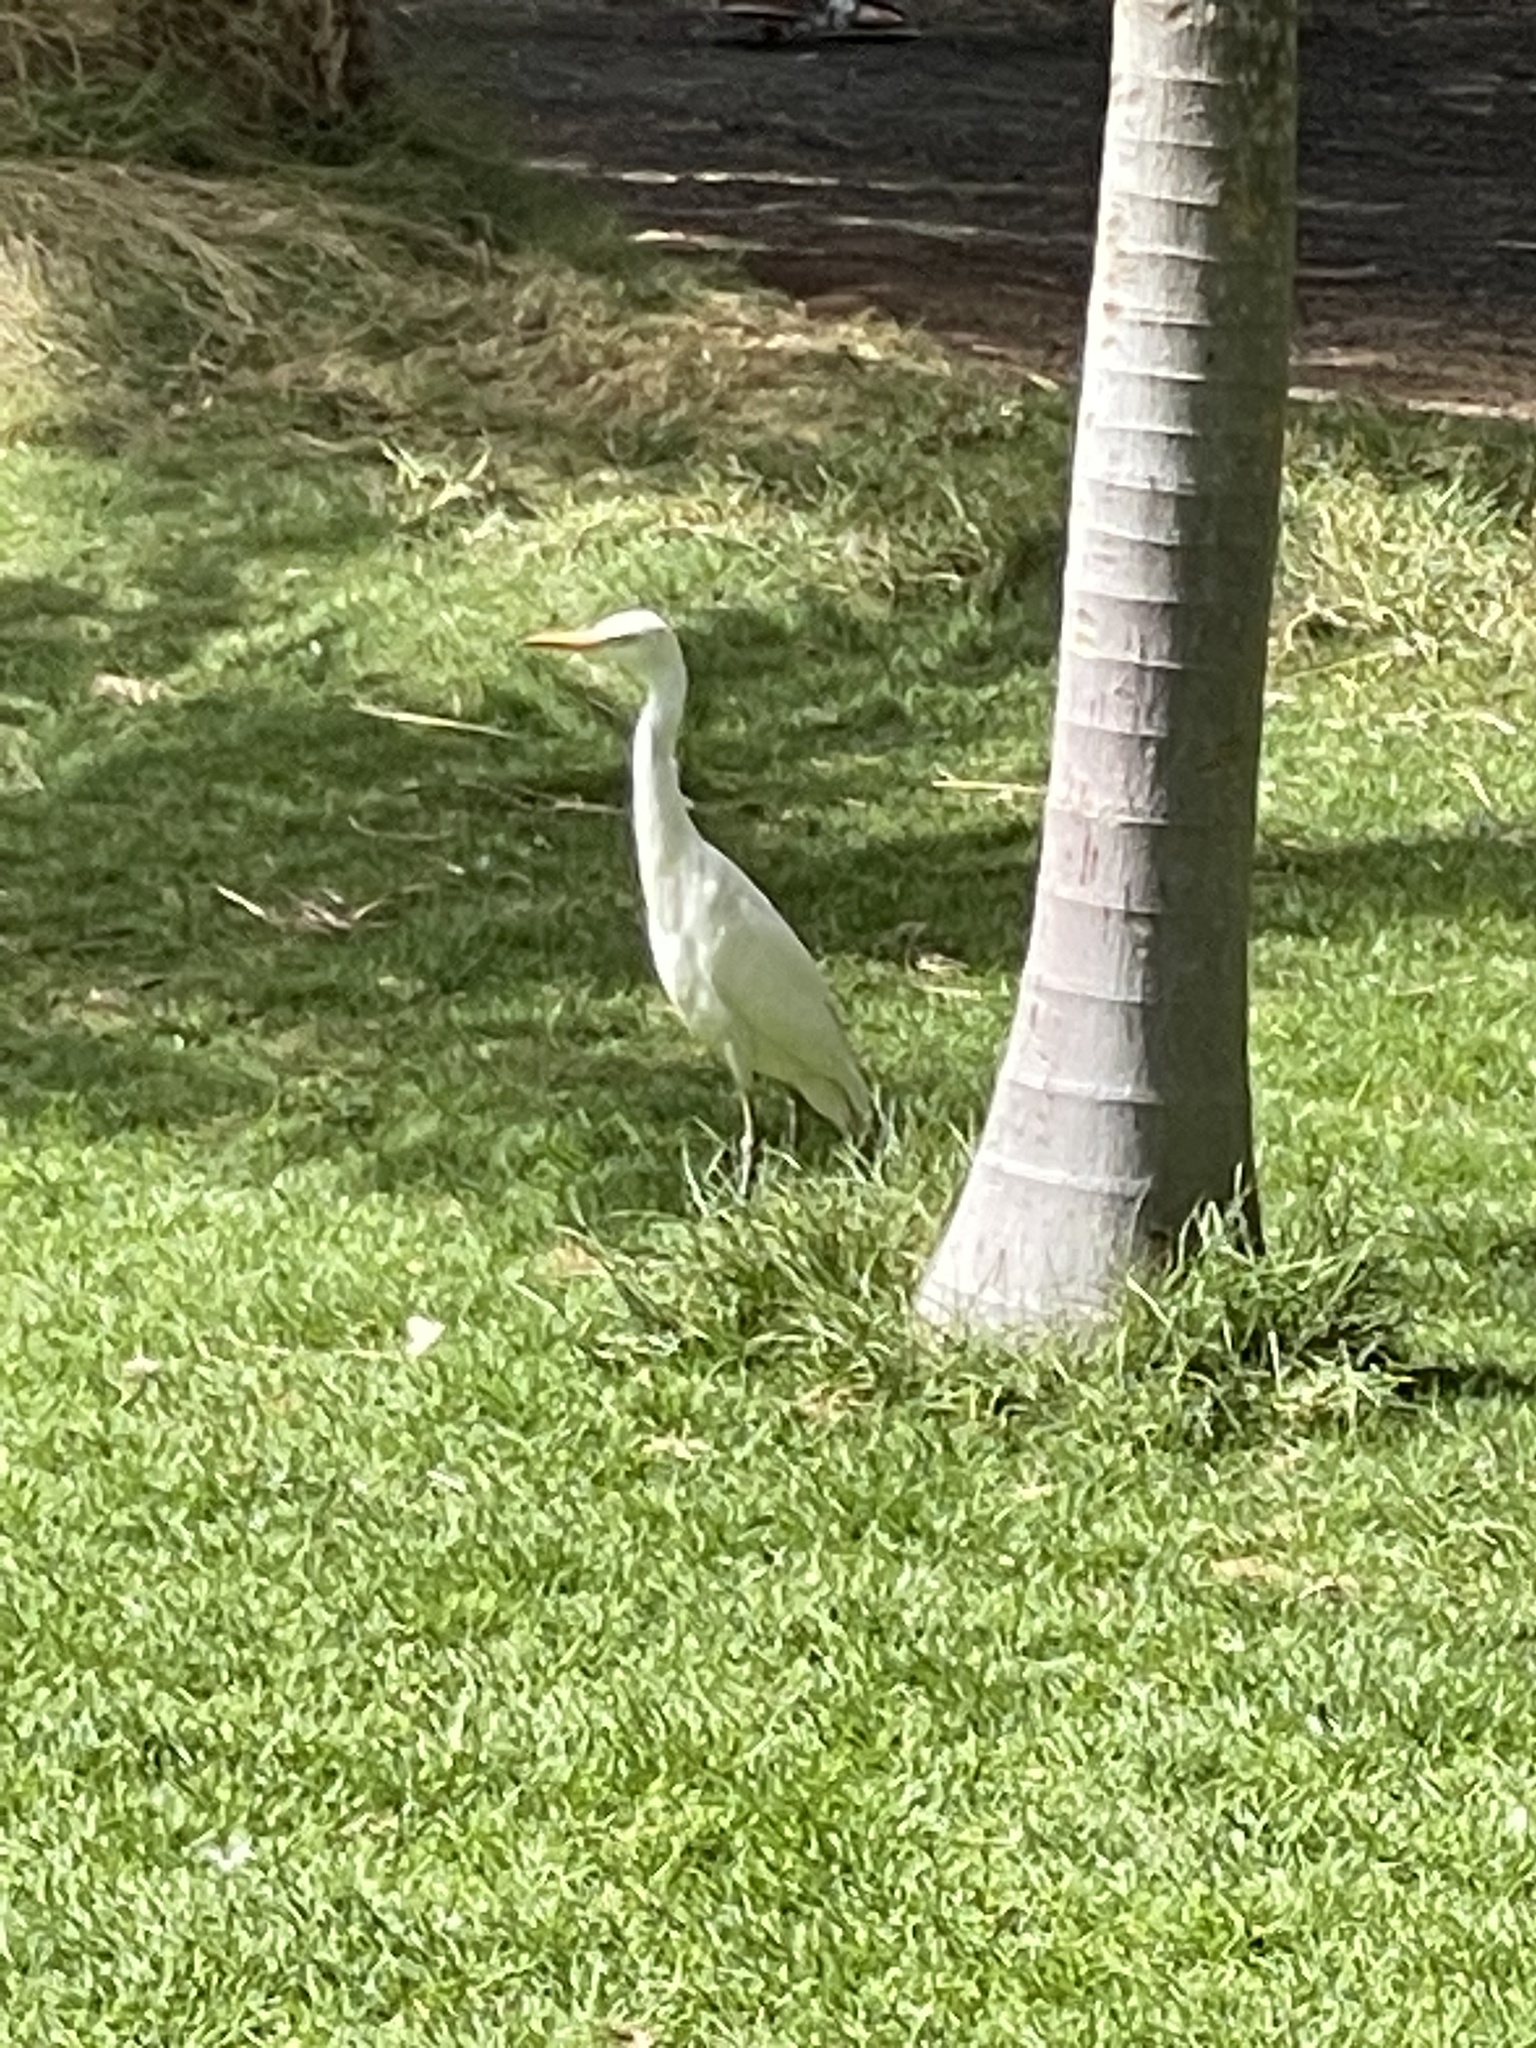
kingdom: Animalia
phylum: Chordata
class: Aves
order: Pelecaniformes
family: Ardeidae
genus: Bubulcus
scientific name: Bubulcus ibis
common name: Cattle egret
